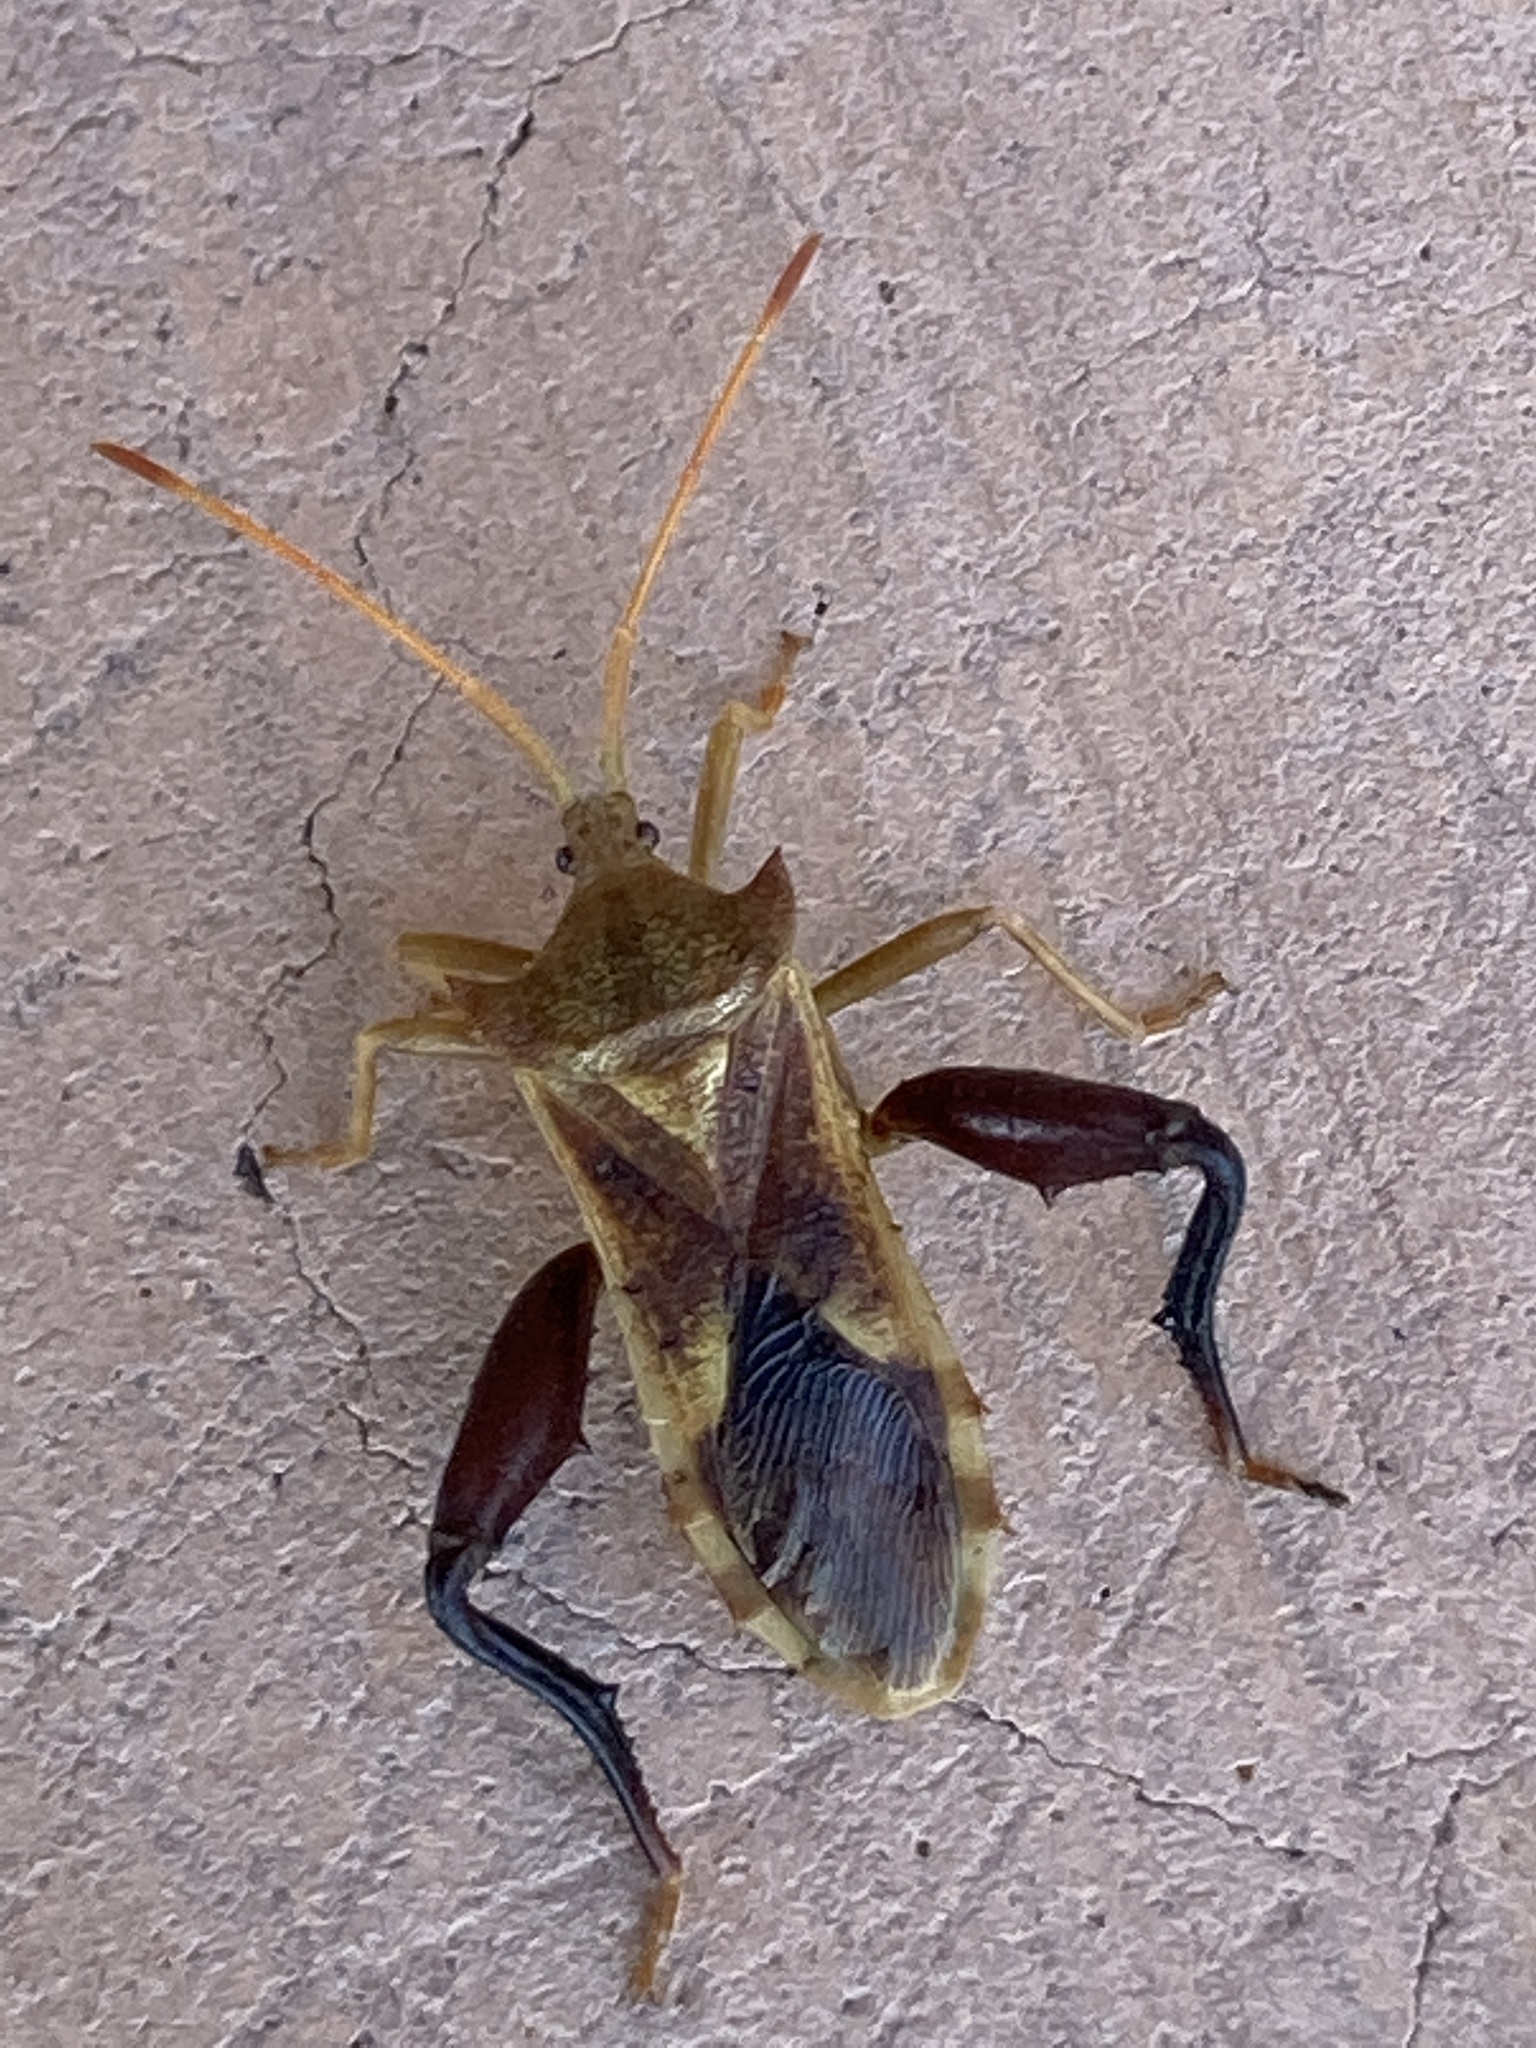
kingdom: Animalia
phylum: Arthropoda
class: Insecta
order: Hemiptera
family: Coreidae
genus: Mozena
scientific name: Mozena arizonensis
